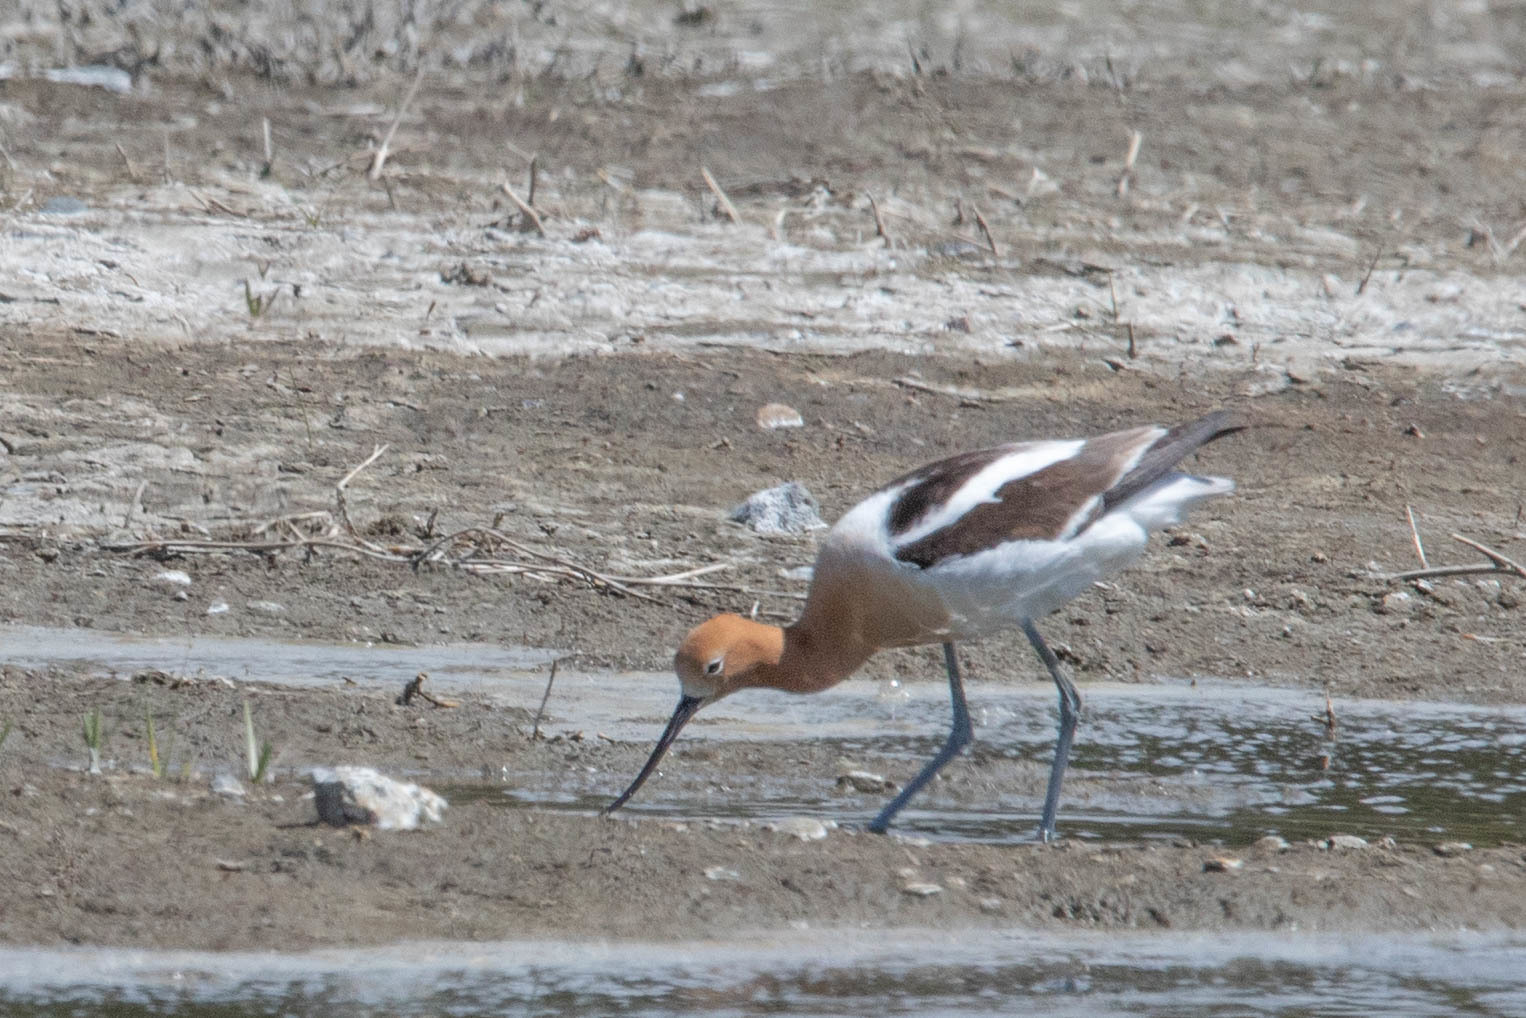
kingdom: Animalia
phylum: Chordata
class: Aves
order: Charadriiformes
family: Recurvirostridae
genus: Recurvirostra
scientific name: Recurvirostra americana
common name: American avocet
